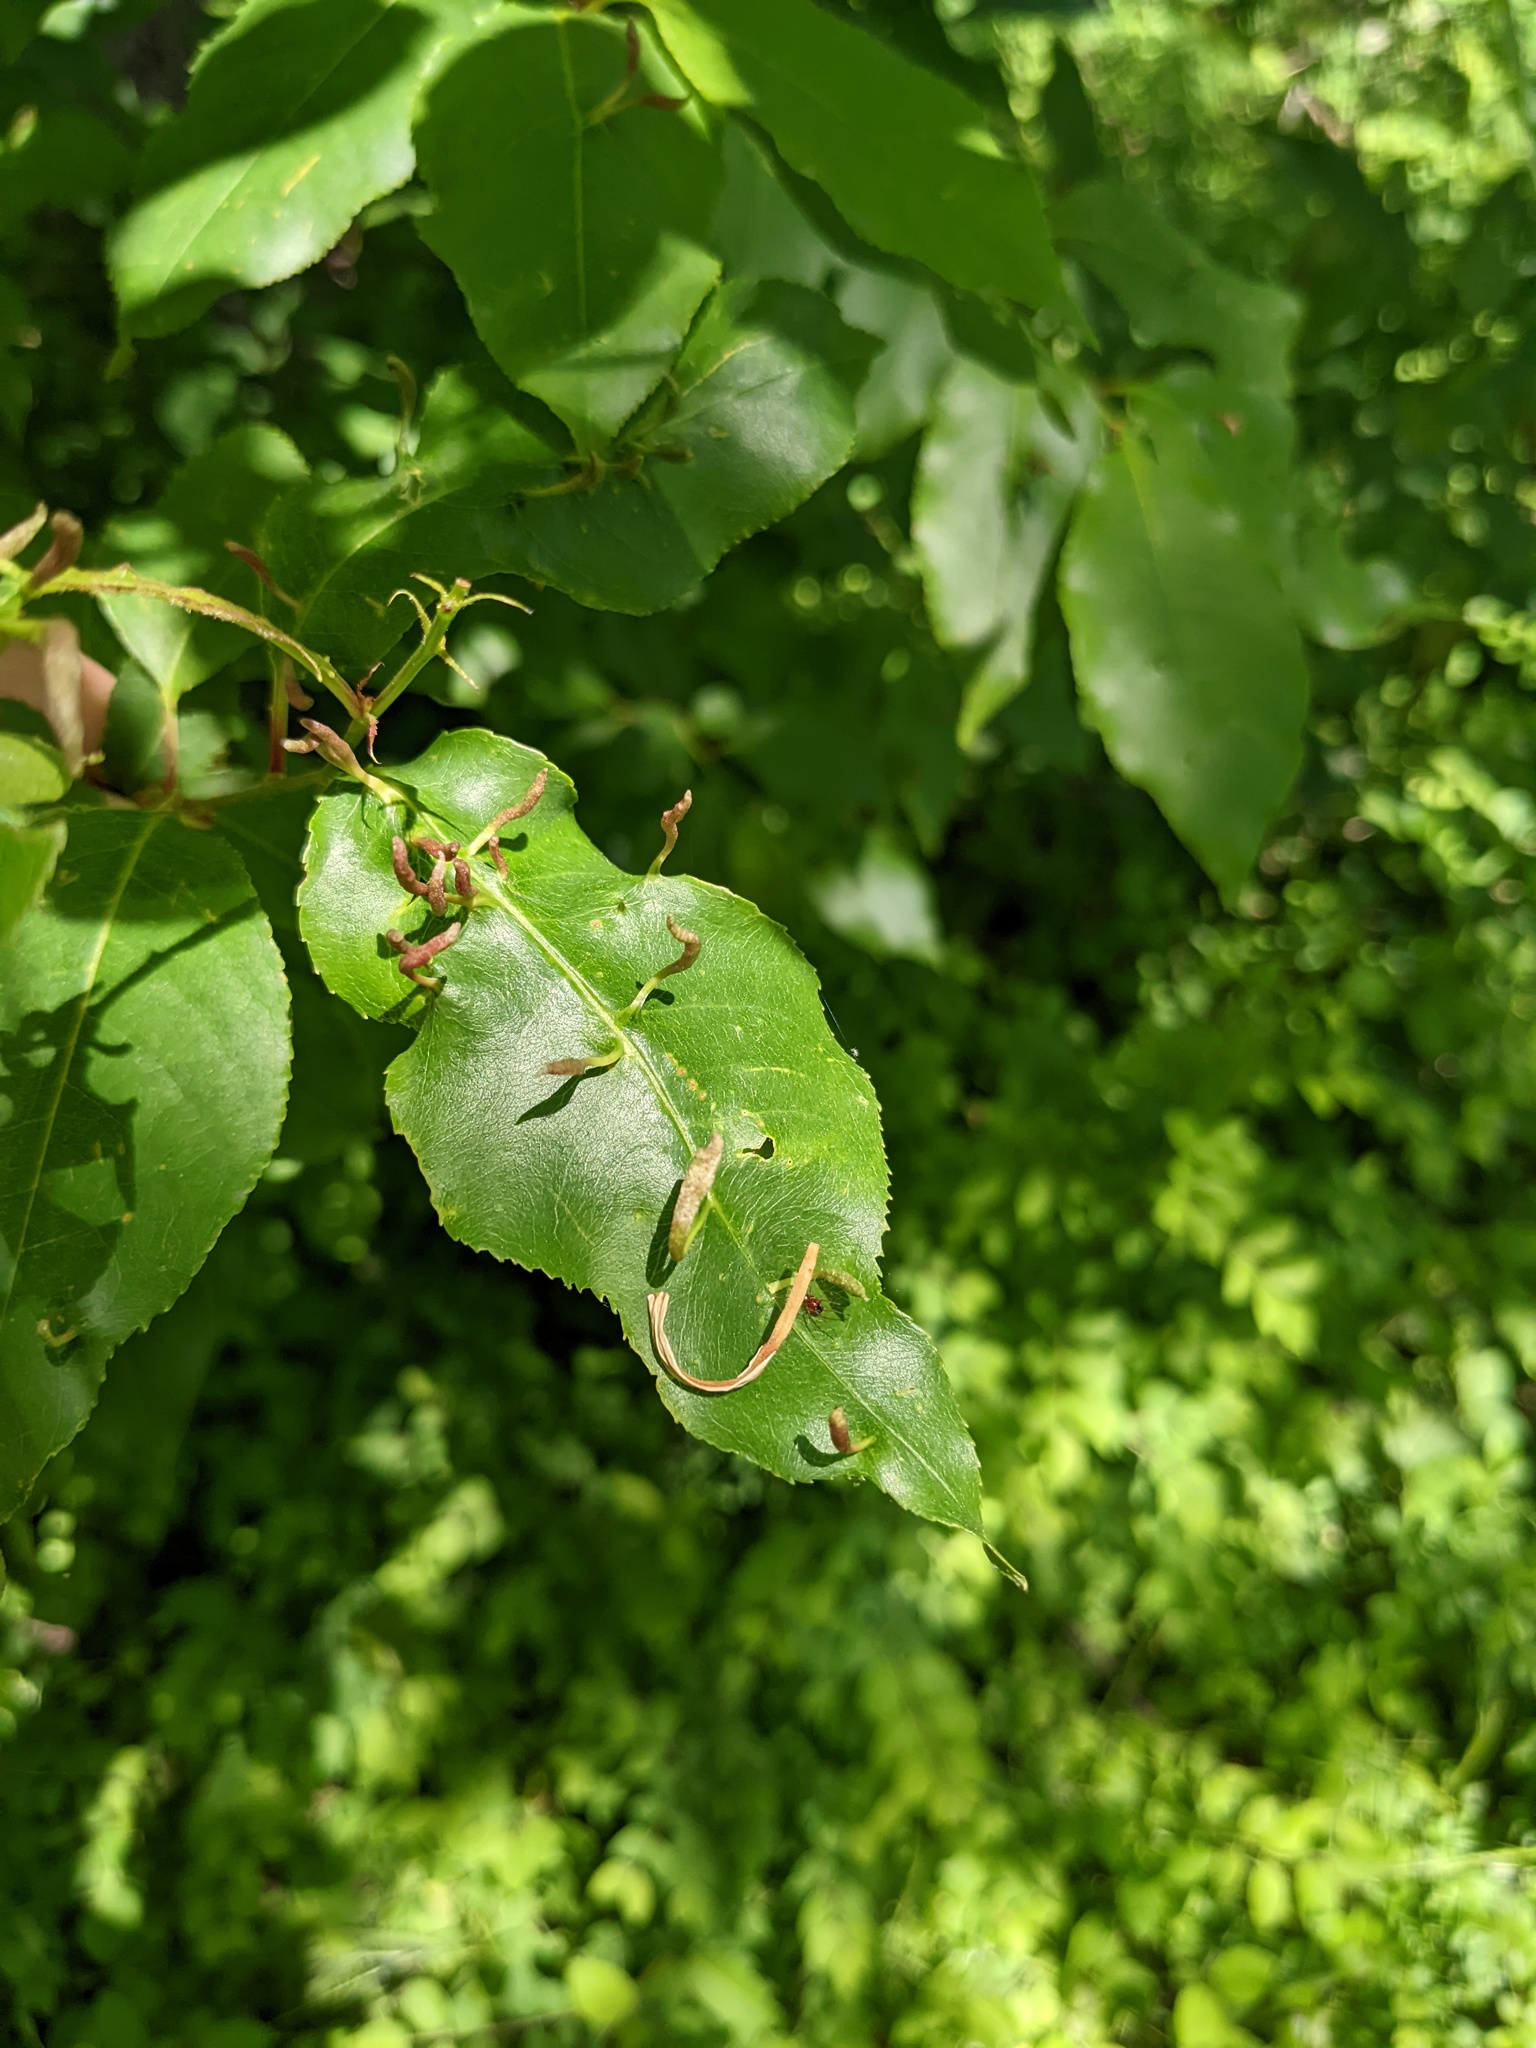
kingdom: Animalia
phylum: Arthropoda
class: Arachnida
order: Trombidiformes
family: Eriophyidae
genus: Eriophyes
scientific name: Eriophyes
